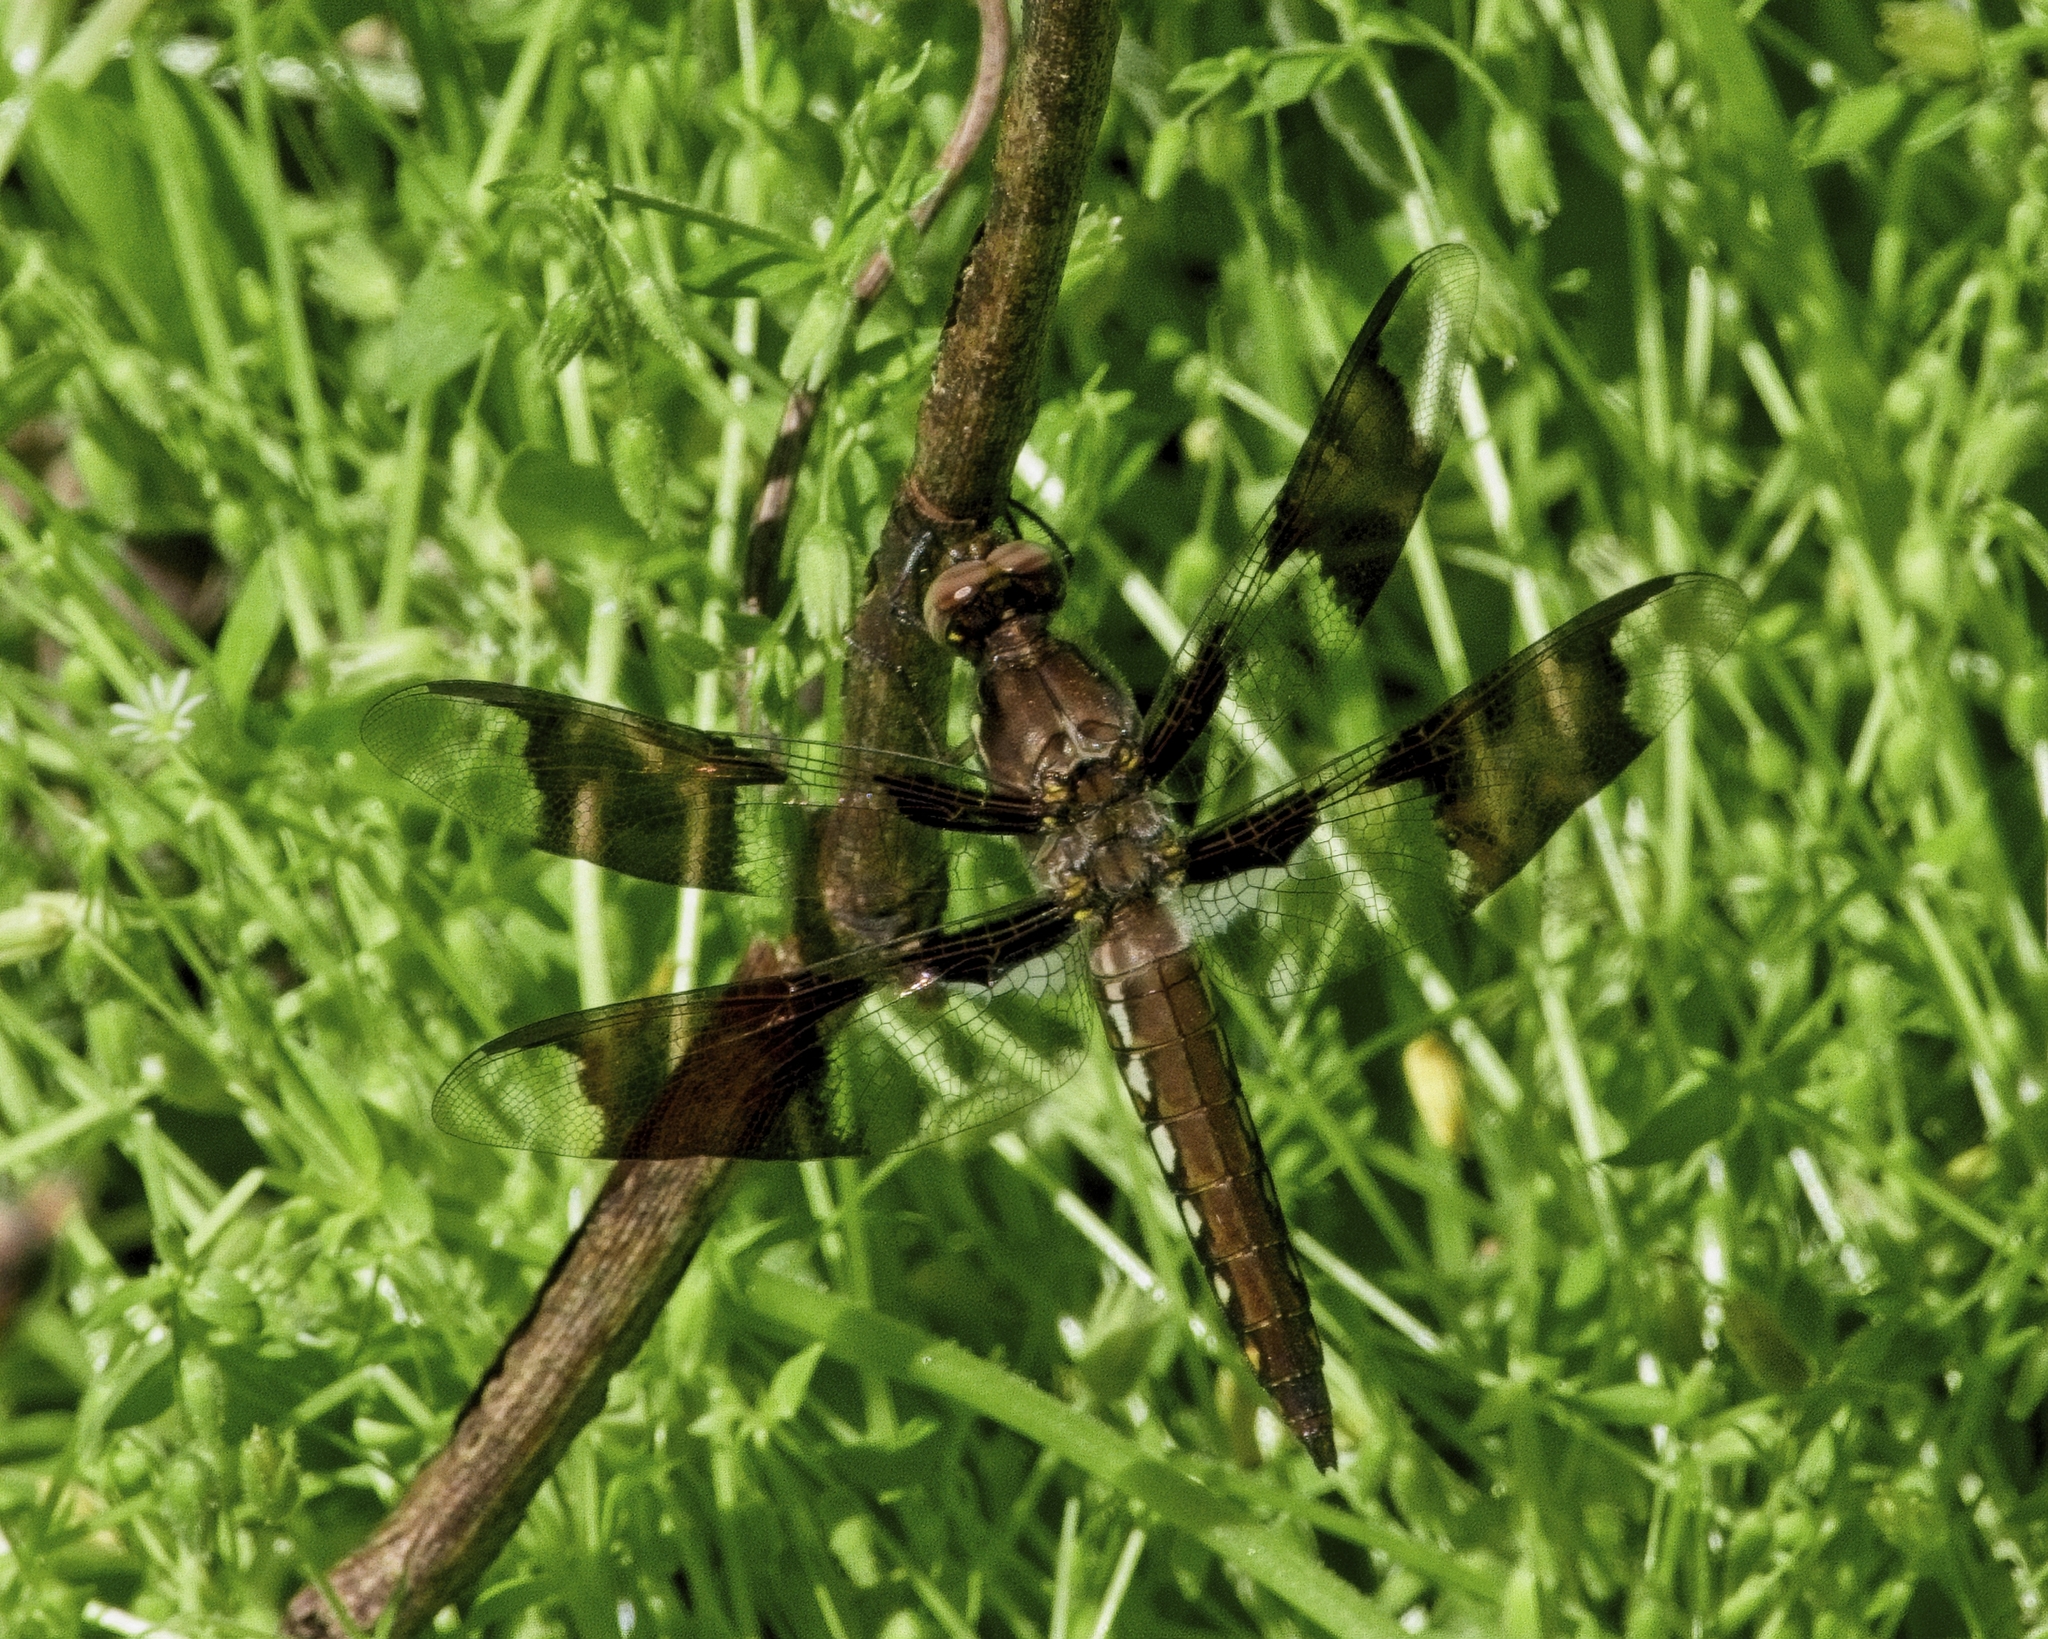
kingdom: Animalia
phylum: Arthropoda
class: Insecta
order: Odonata
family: Libellulidae
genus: Plathemis
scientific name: Plathemis lydia
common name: Common whitetail
